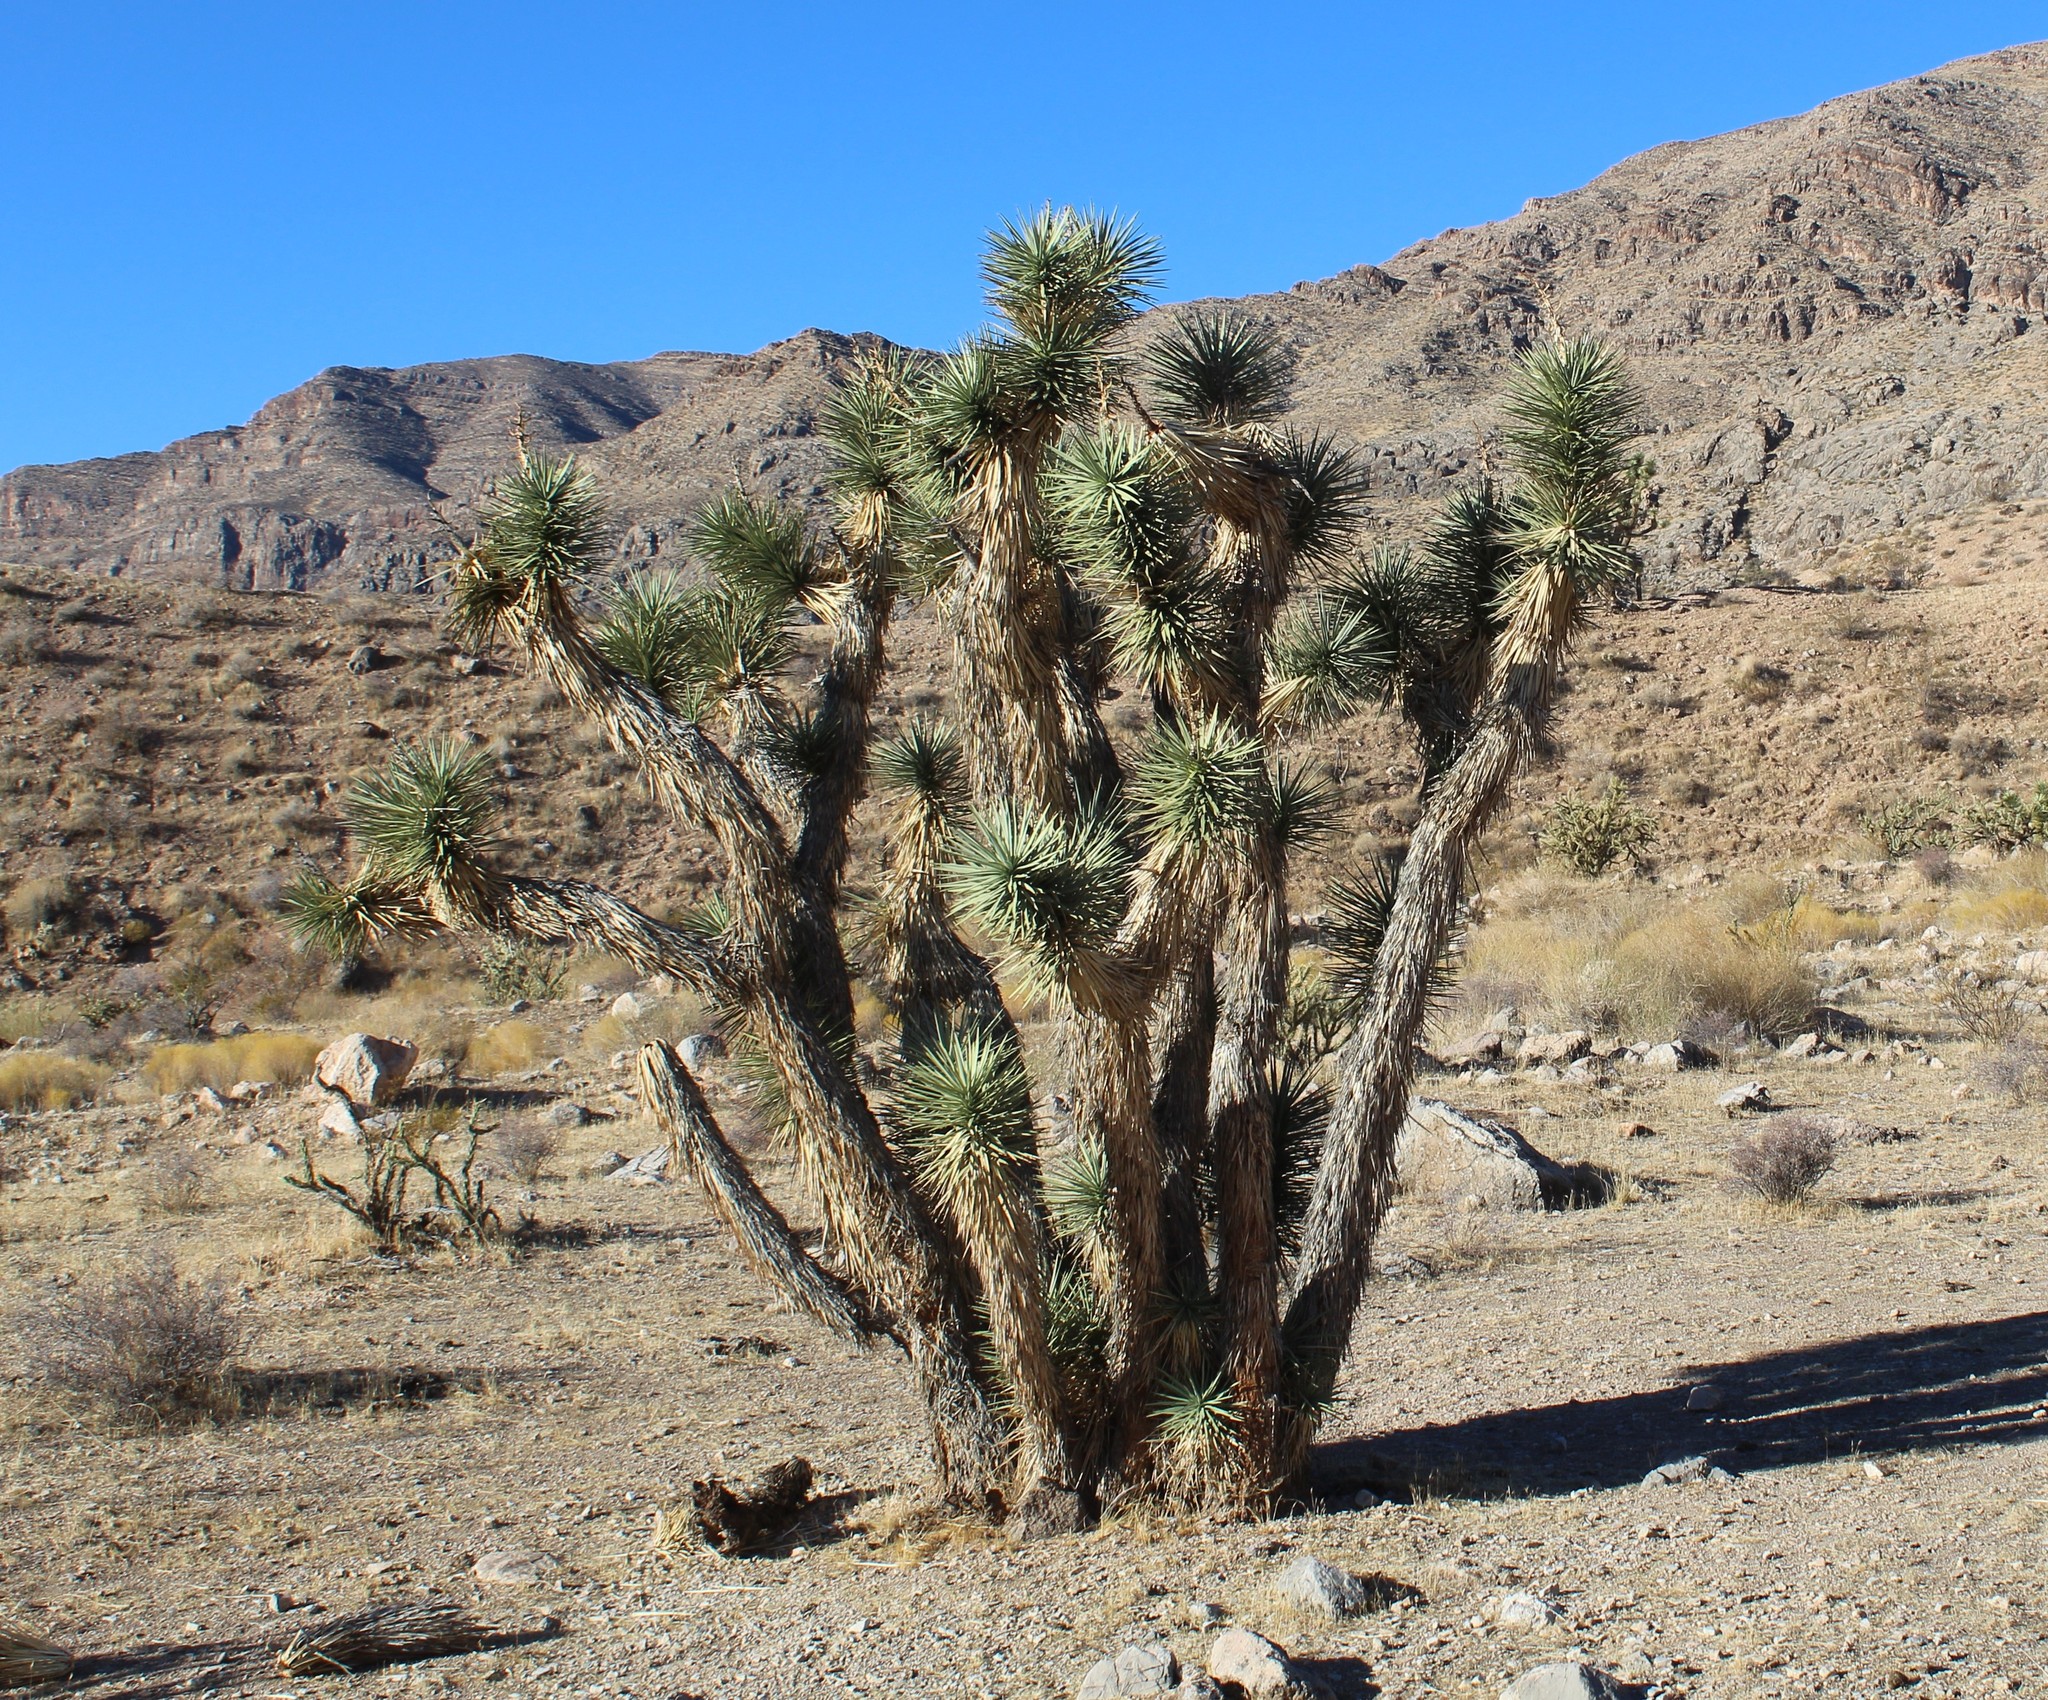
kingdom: Plantae
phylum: Tracheophyta
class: Liliopsida
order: Asparagales
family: Asparagaceae
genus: Yucca
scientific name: Yucca brevifolia
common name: Joshua tree
